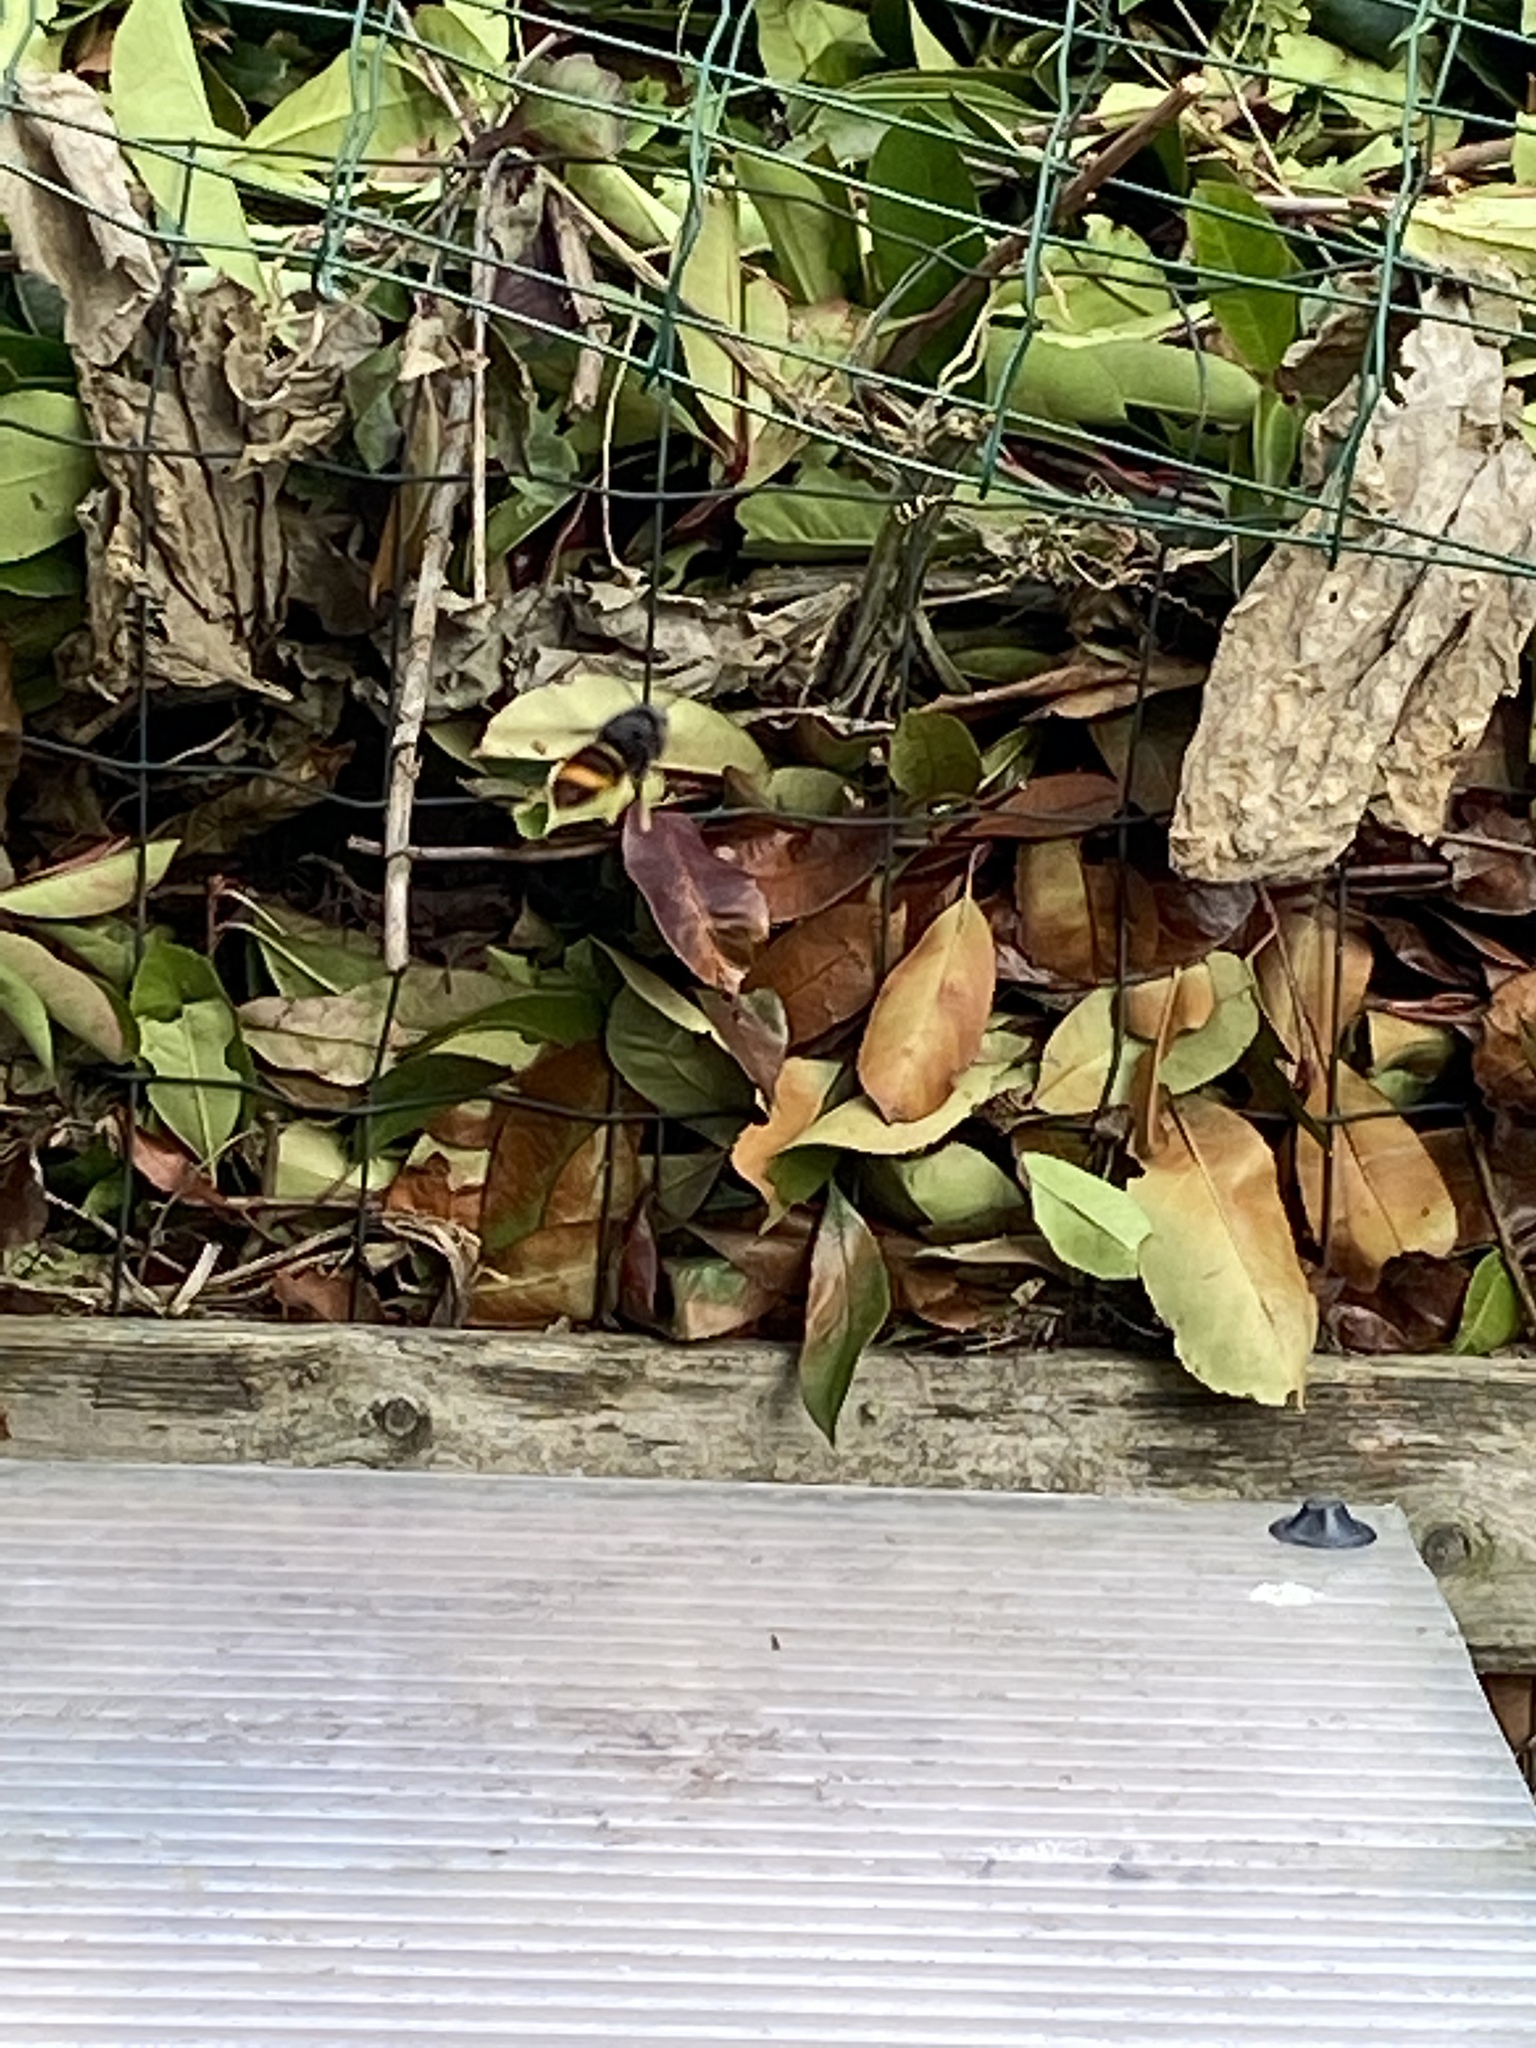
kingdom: Animalia
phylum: Arthropoda
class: Insecta
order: Hymenoptera
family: Vespidae
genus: Vespa
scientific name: Vespa velutina
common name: Asian hornet
